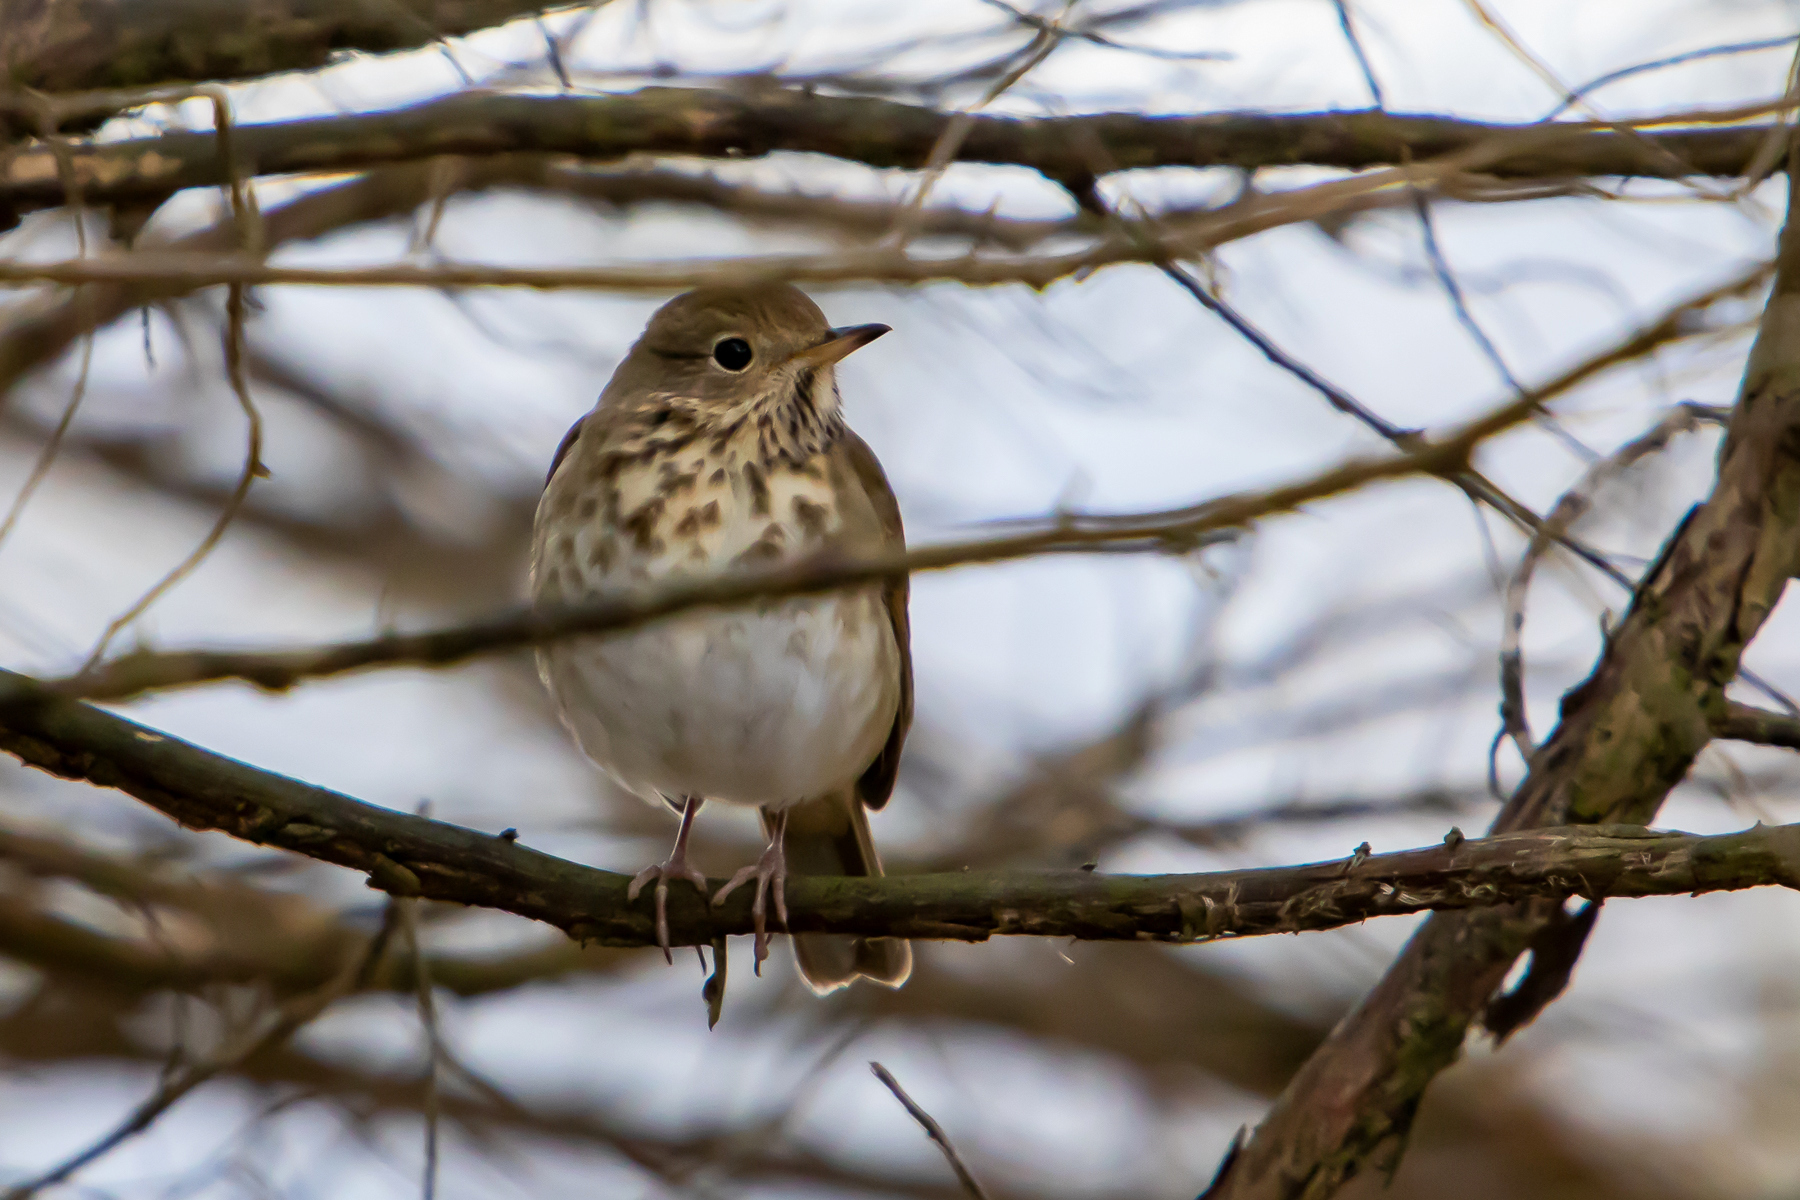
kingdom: Animalia
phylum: Chordata
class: Aves
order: Passeriformes
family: Turdidae
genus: Catharus
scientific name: Catharus guttatus
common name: Hermit thrush
